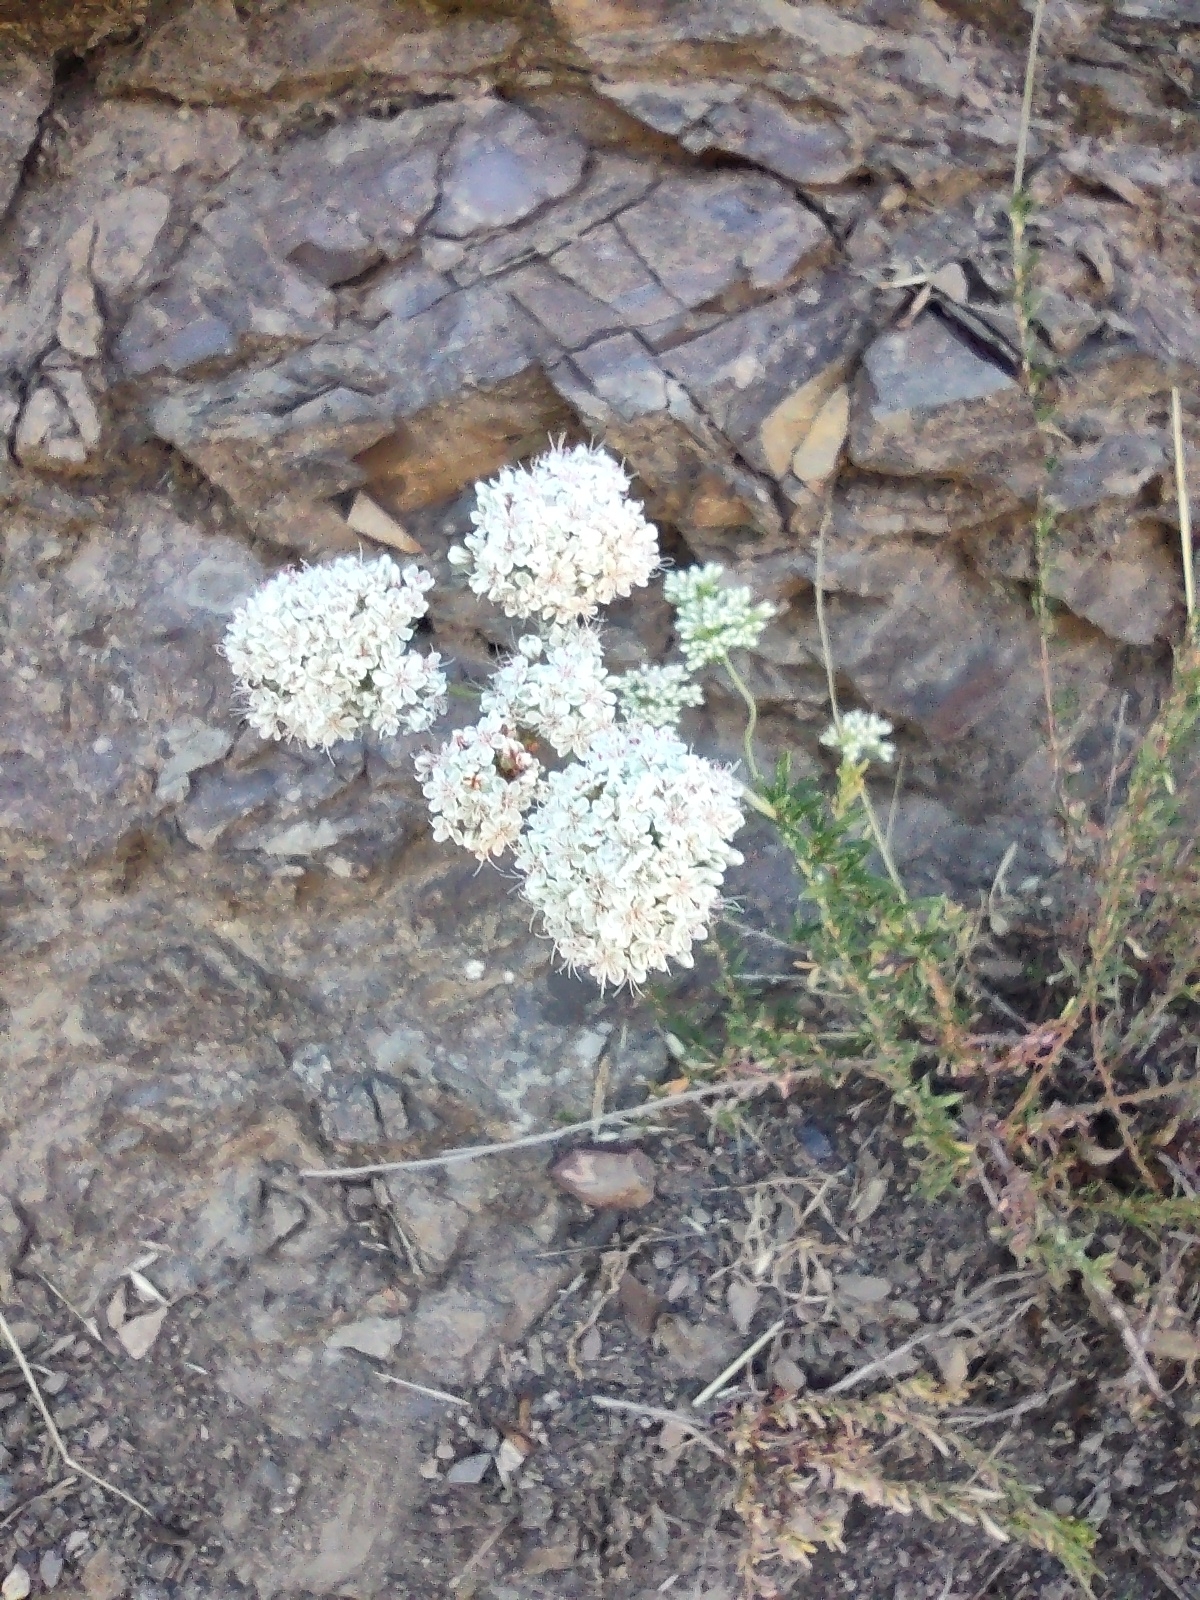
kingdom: Plantae
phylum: Tracheophyta
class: Magnoliopsida
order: Caryophyllales
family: Polygonaceae
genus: Eriogonum
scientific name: Eriogonum fasciculatum
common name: California wild buckwheat
